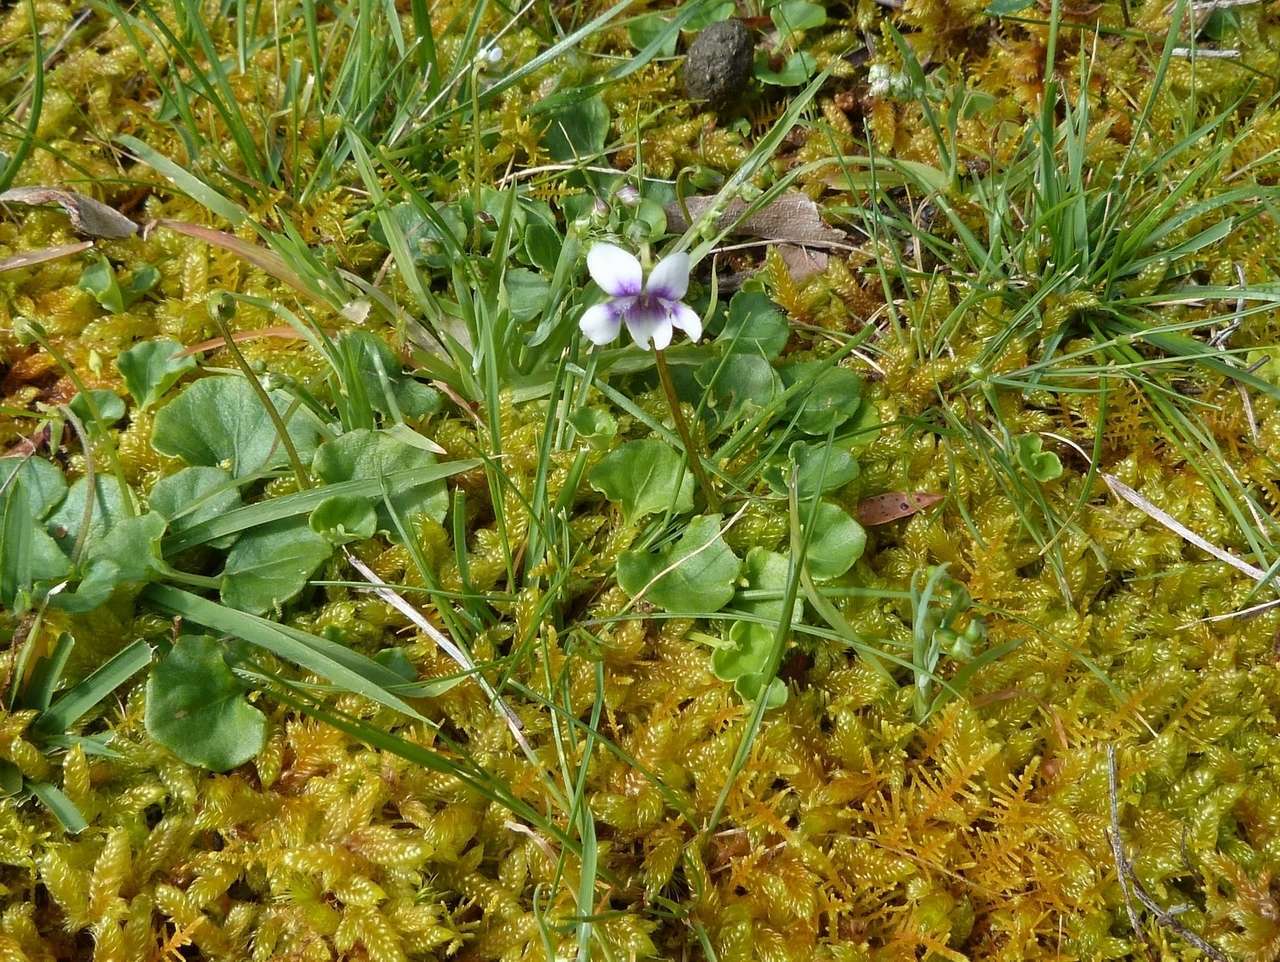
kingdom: Plantae
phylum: Tracheophyta
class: Magnoliopsida
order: Malpighiales
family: Violaceae
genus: Viola
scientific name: Viola hederacea
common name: Australian violet
